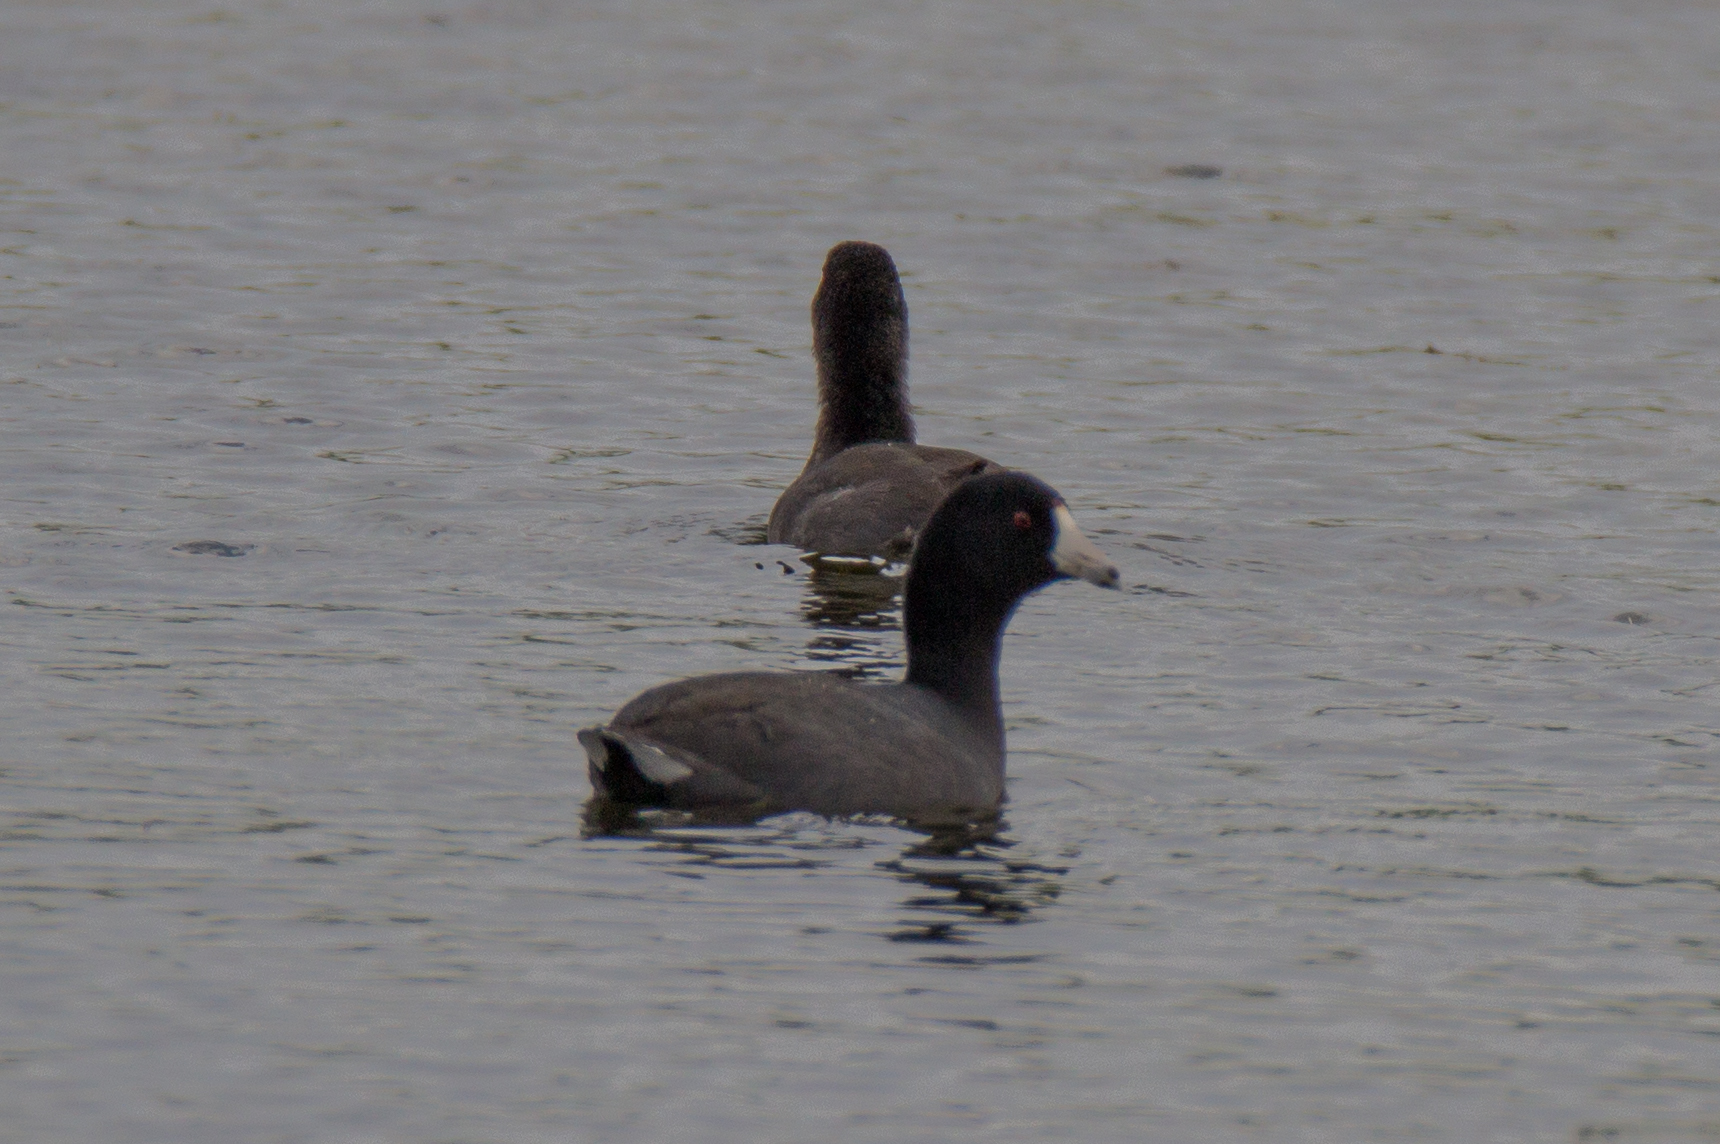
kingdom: Animalia
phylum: Chordata
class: Aves
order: Gruiformes
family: Rallidae
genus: Fulica
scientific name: Fulica americana
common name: American coot
